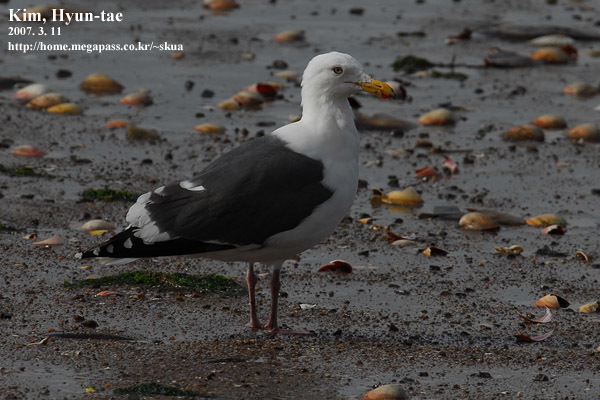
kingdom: Animalia
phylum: Chordata
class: Aves
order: Charadriiformes
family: Laridae
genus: Larus
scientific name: Larus schistisagus
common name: Slaty-backed gull
